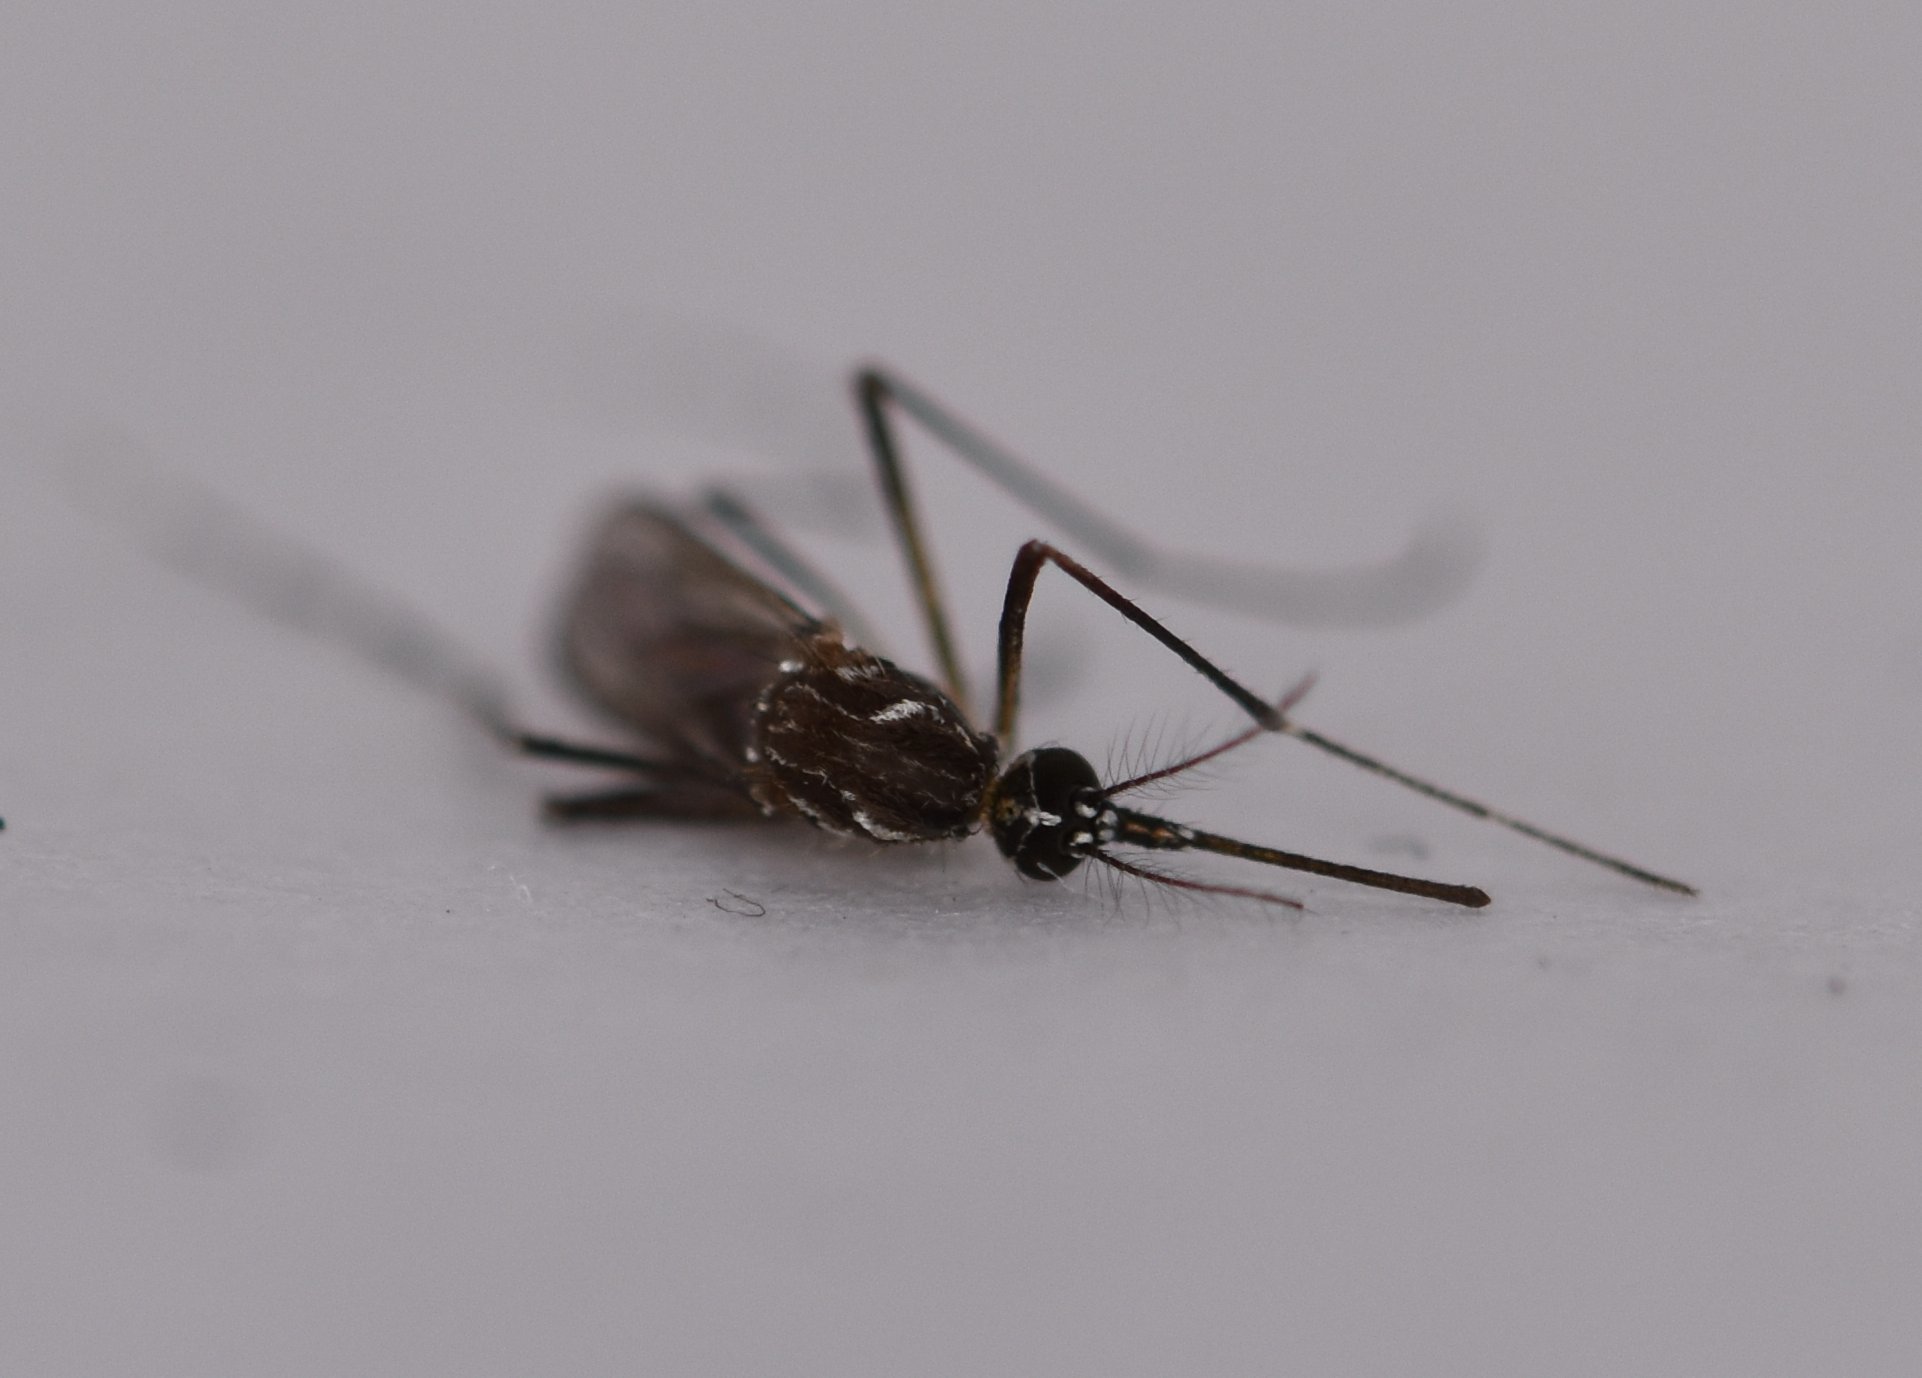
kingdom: Animalia
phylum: Arthropoda
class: Insecta
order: Diptera
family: Culicidae
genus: Aedes
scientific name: Aedes aegypti
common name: Yellow fever mosquito
